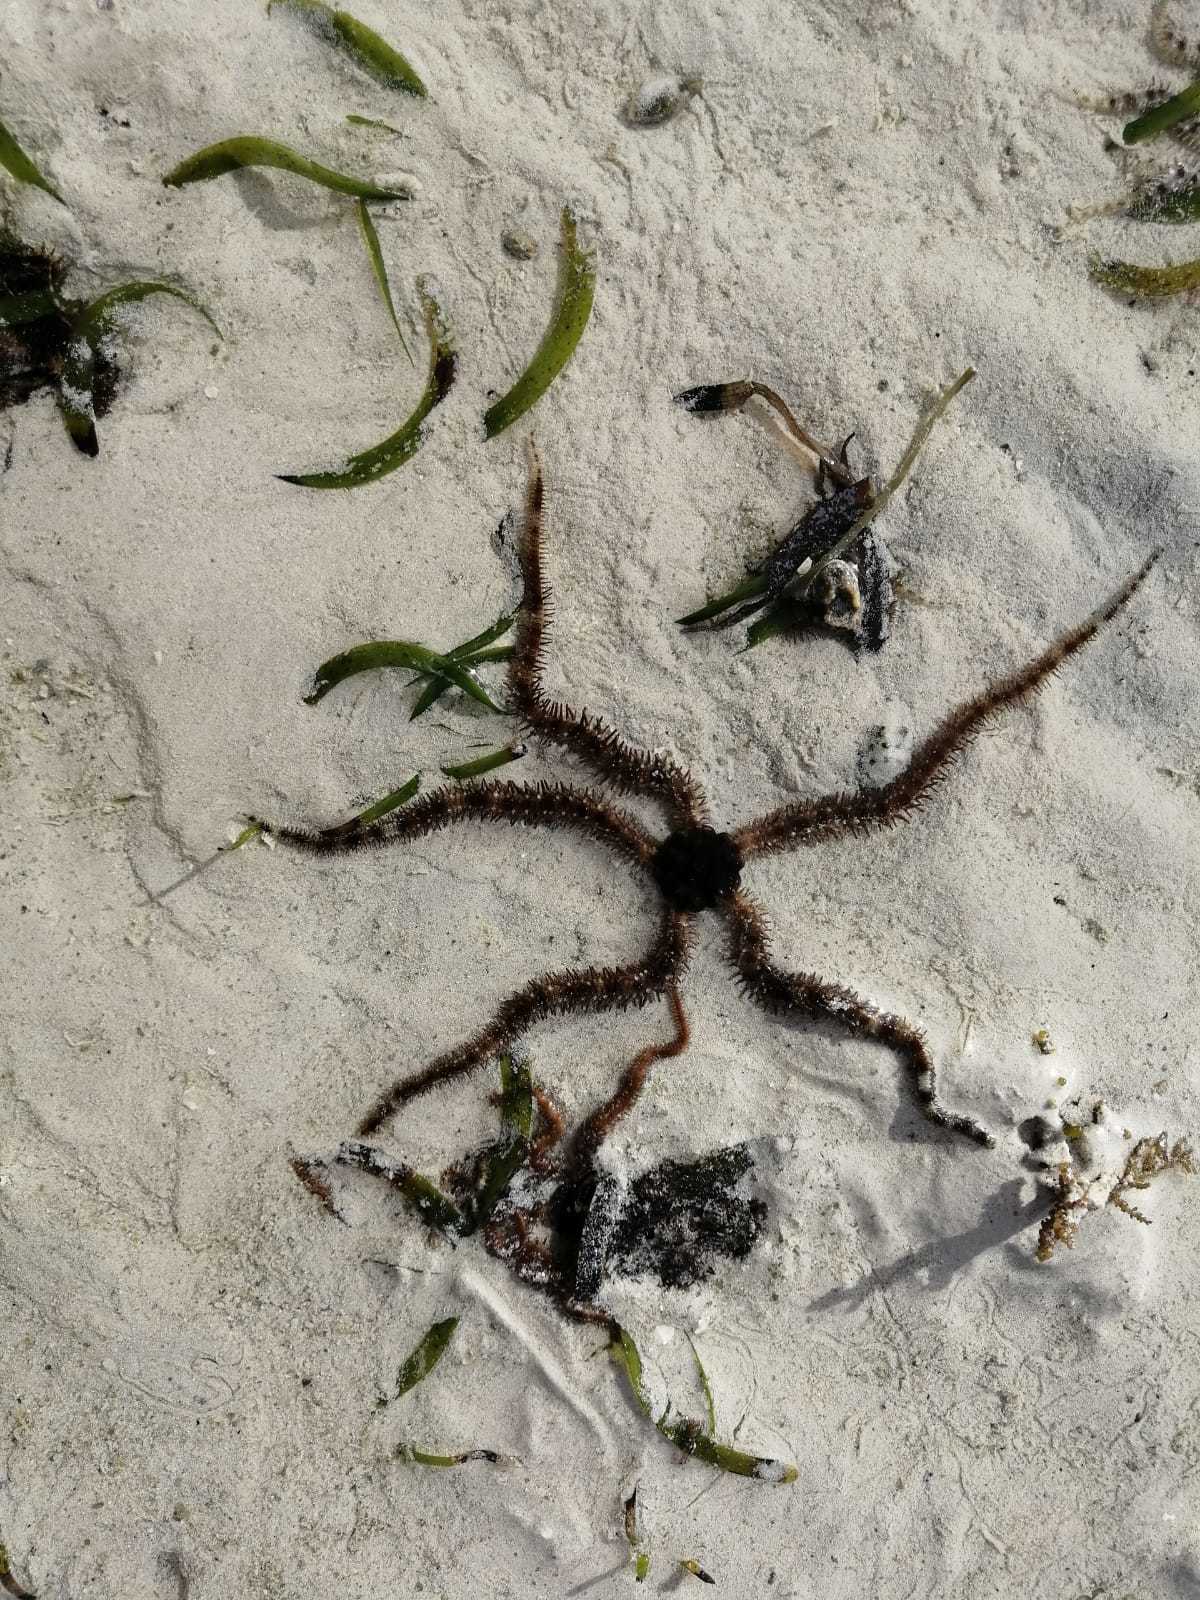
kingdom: Animalia
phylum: Echinodermata
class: Ophiuroidea
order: Ophiacanthida
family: Ophiocomidae
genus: Ophiocoma
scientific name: Ophiocoma scolopendrina
